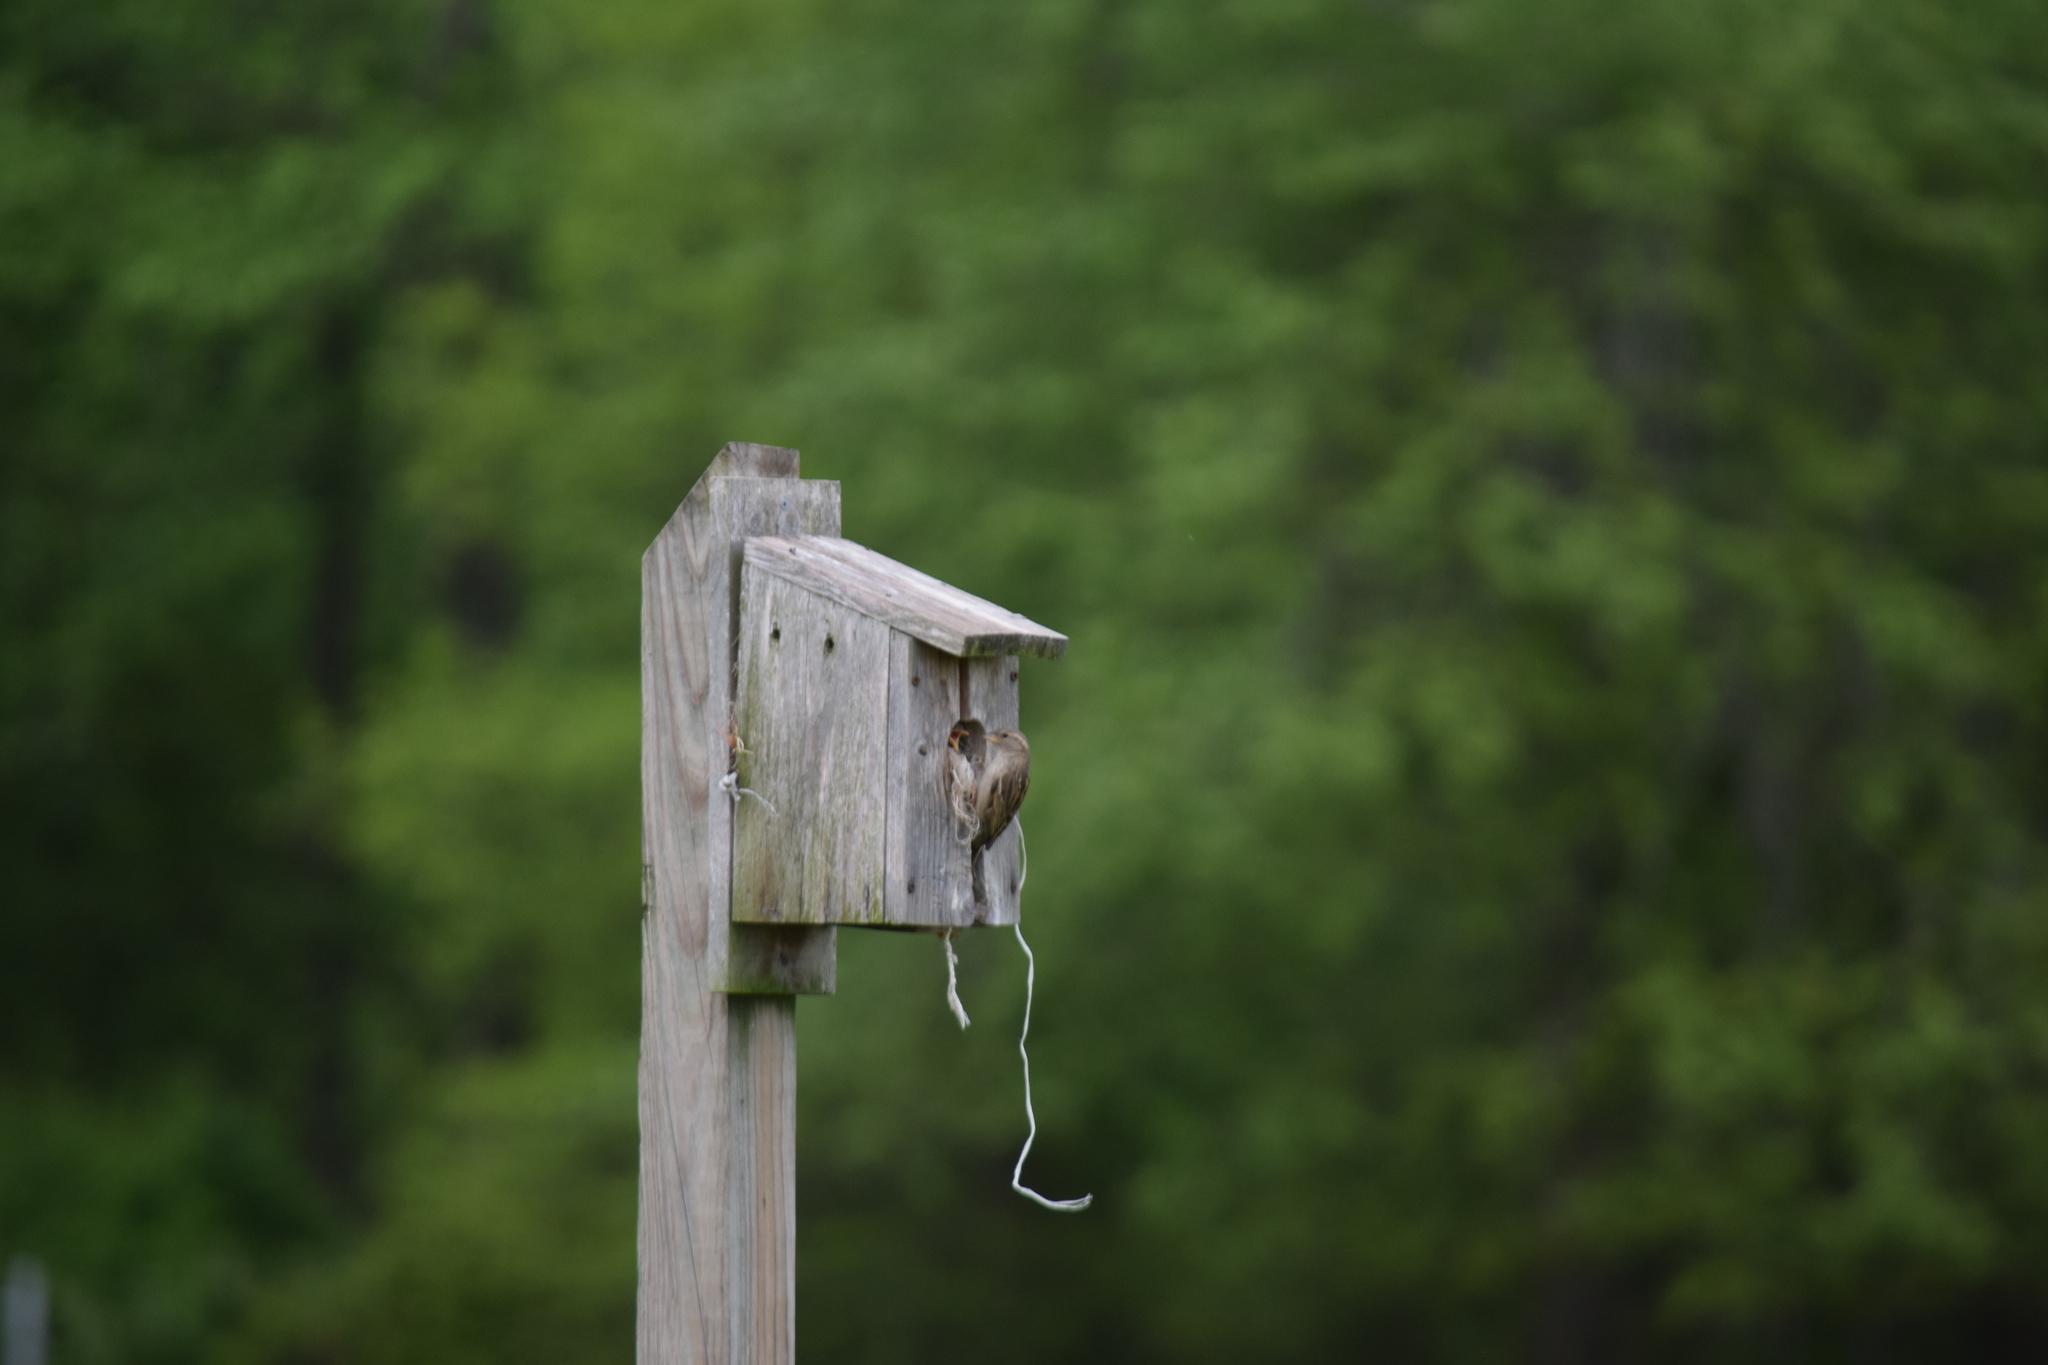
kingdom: Animalia
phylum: Chordata
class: Aves
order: Passeriformes
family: Passeridae
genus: Passer
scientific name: Passer domesticus
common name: House sparrow
